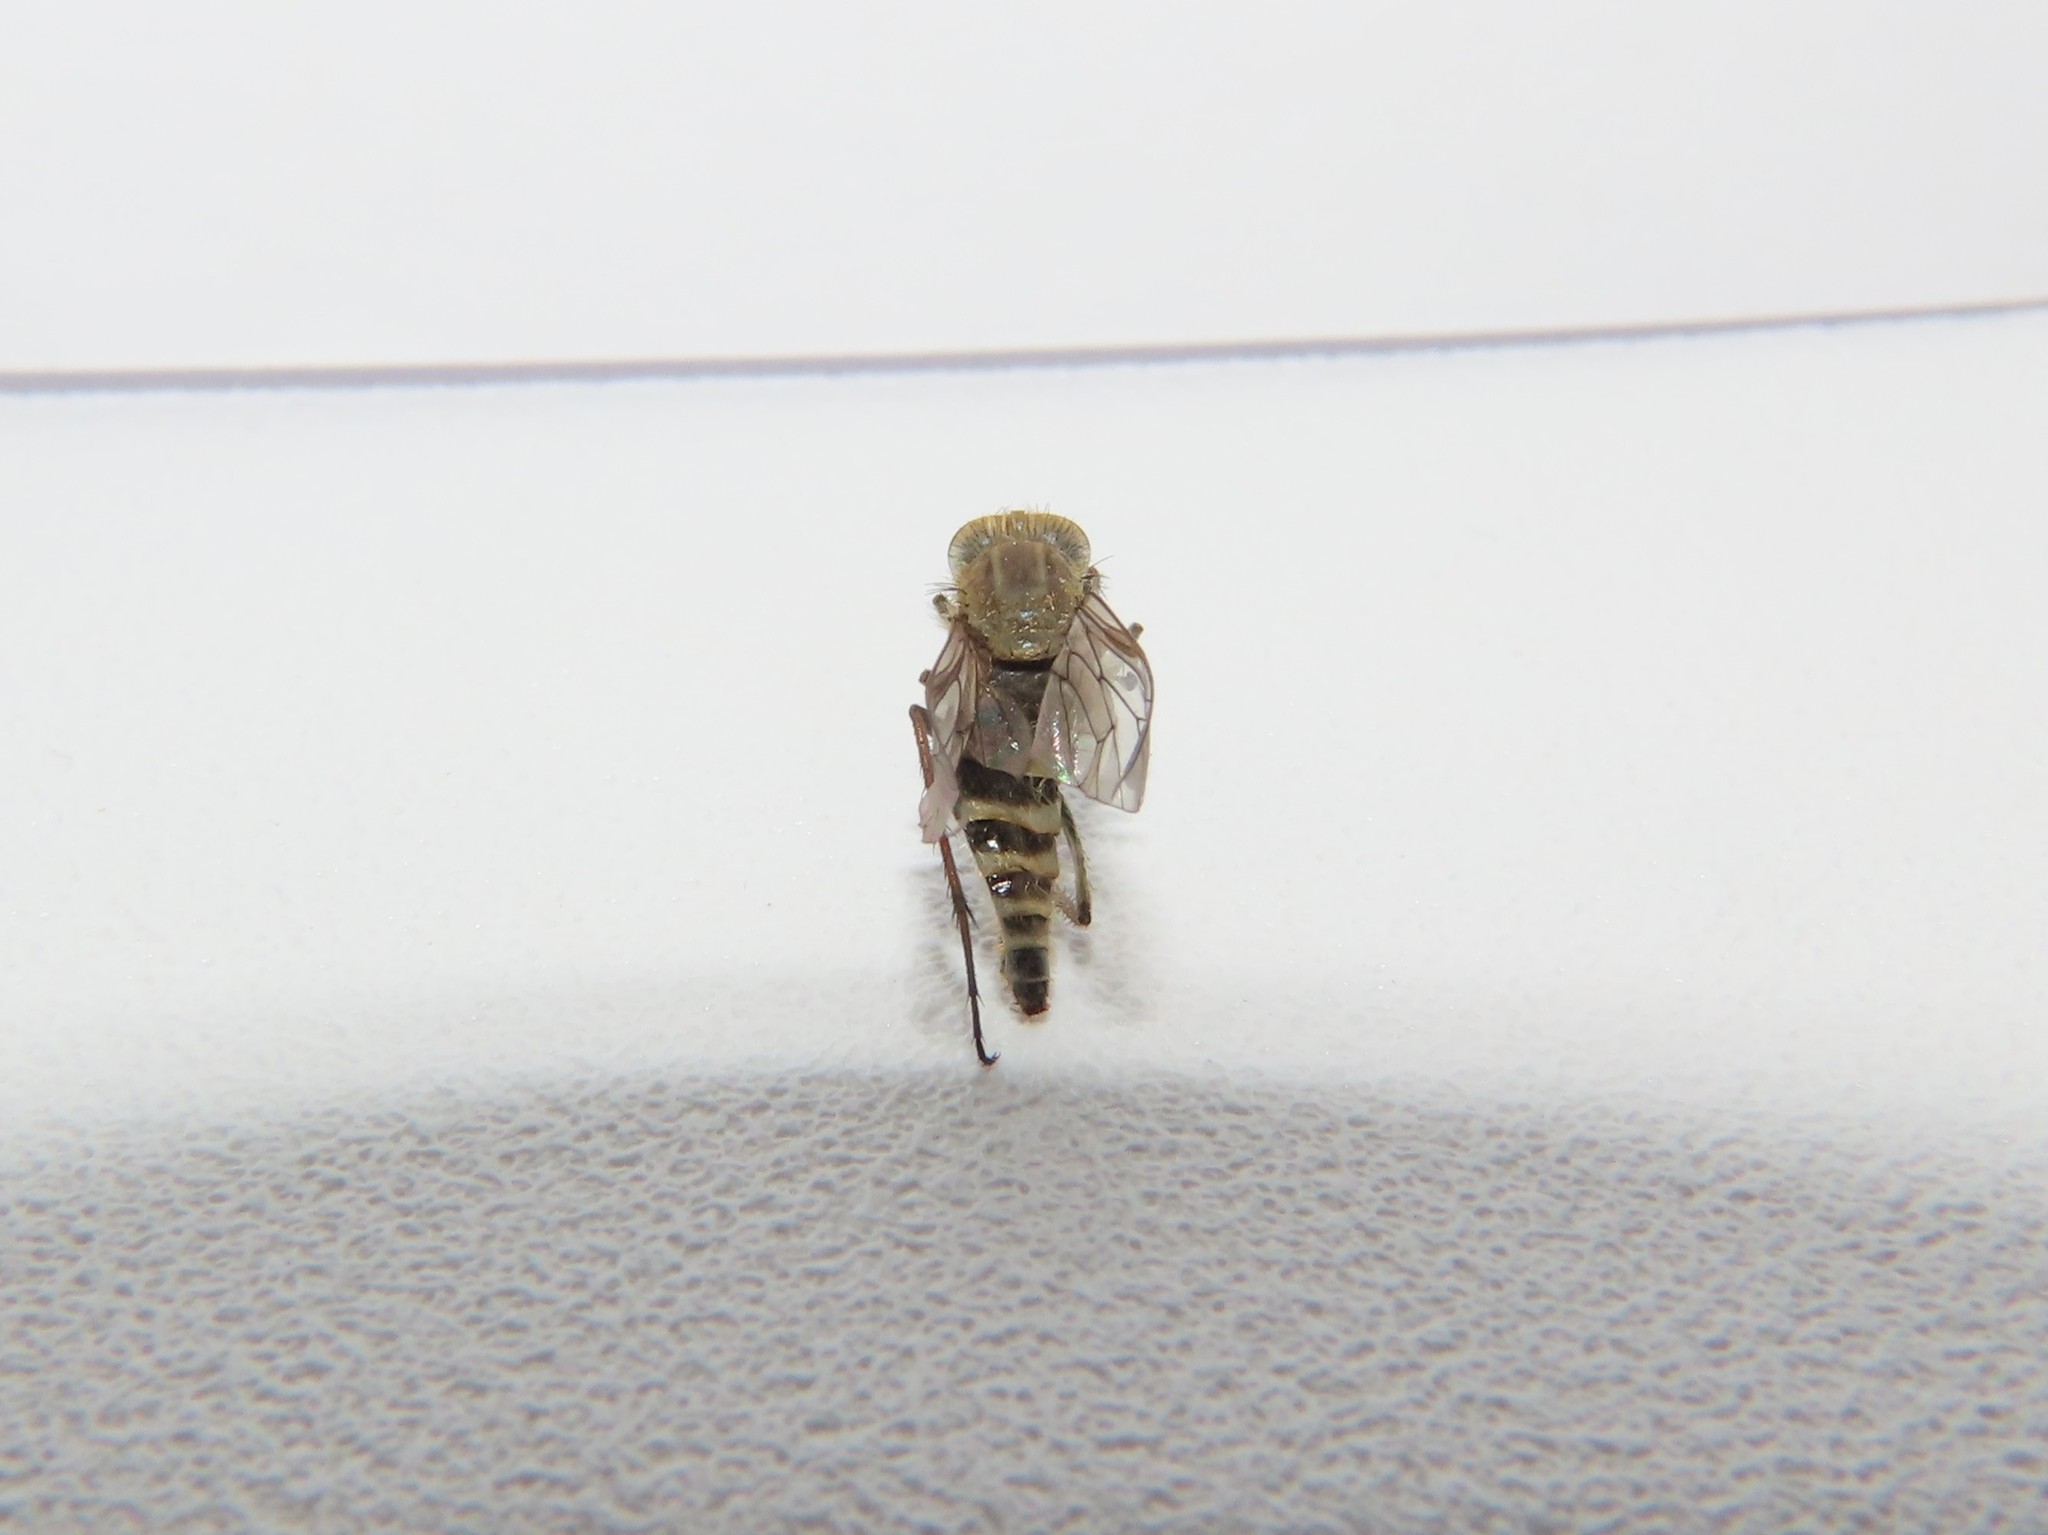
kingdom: Animalia
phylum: Arthropoda
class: Insecta
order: Diptera
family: Therevidae
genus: Thereva
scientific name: Thereva unica
